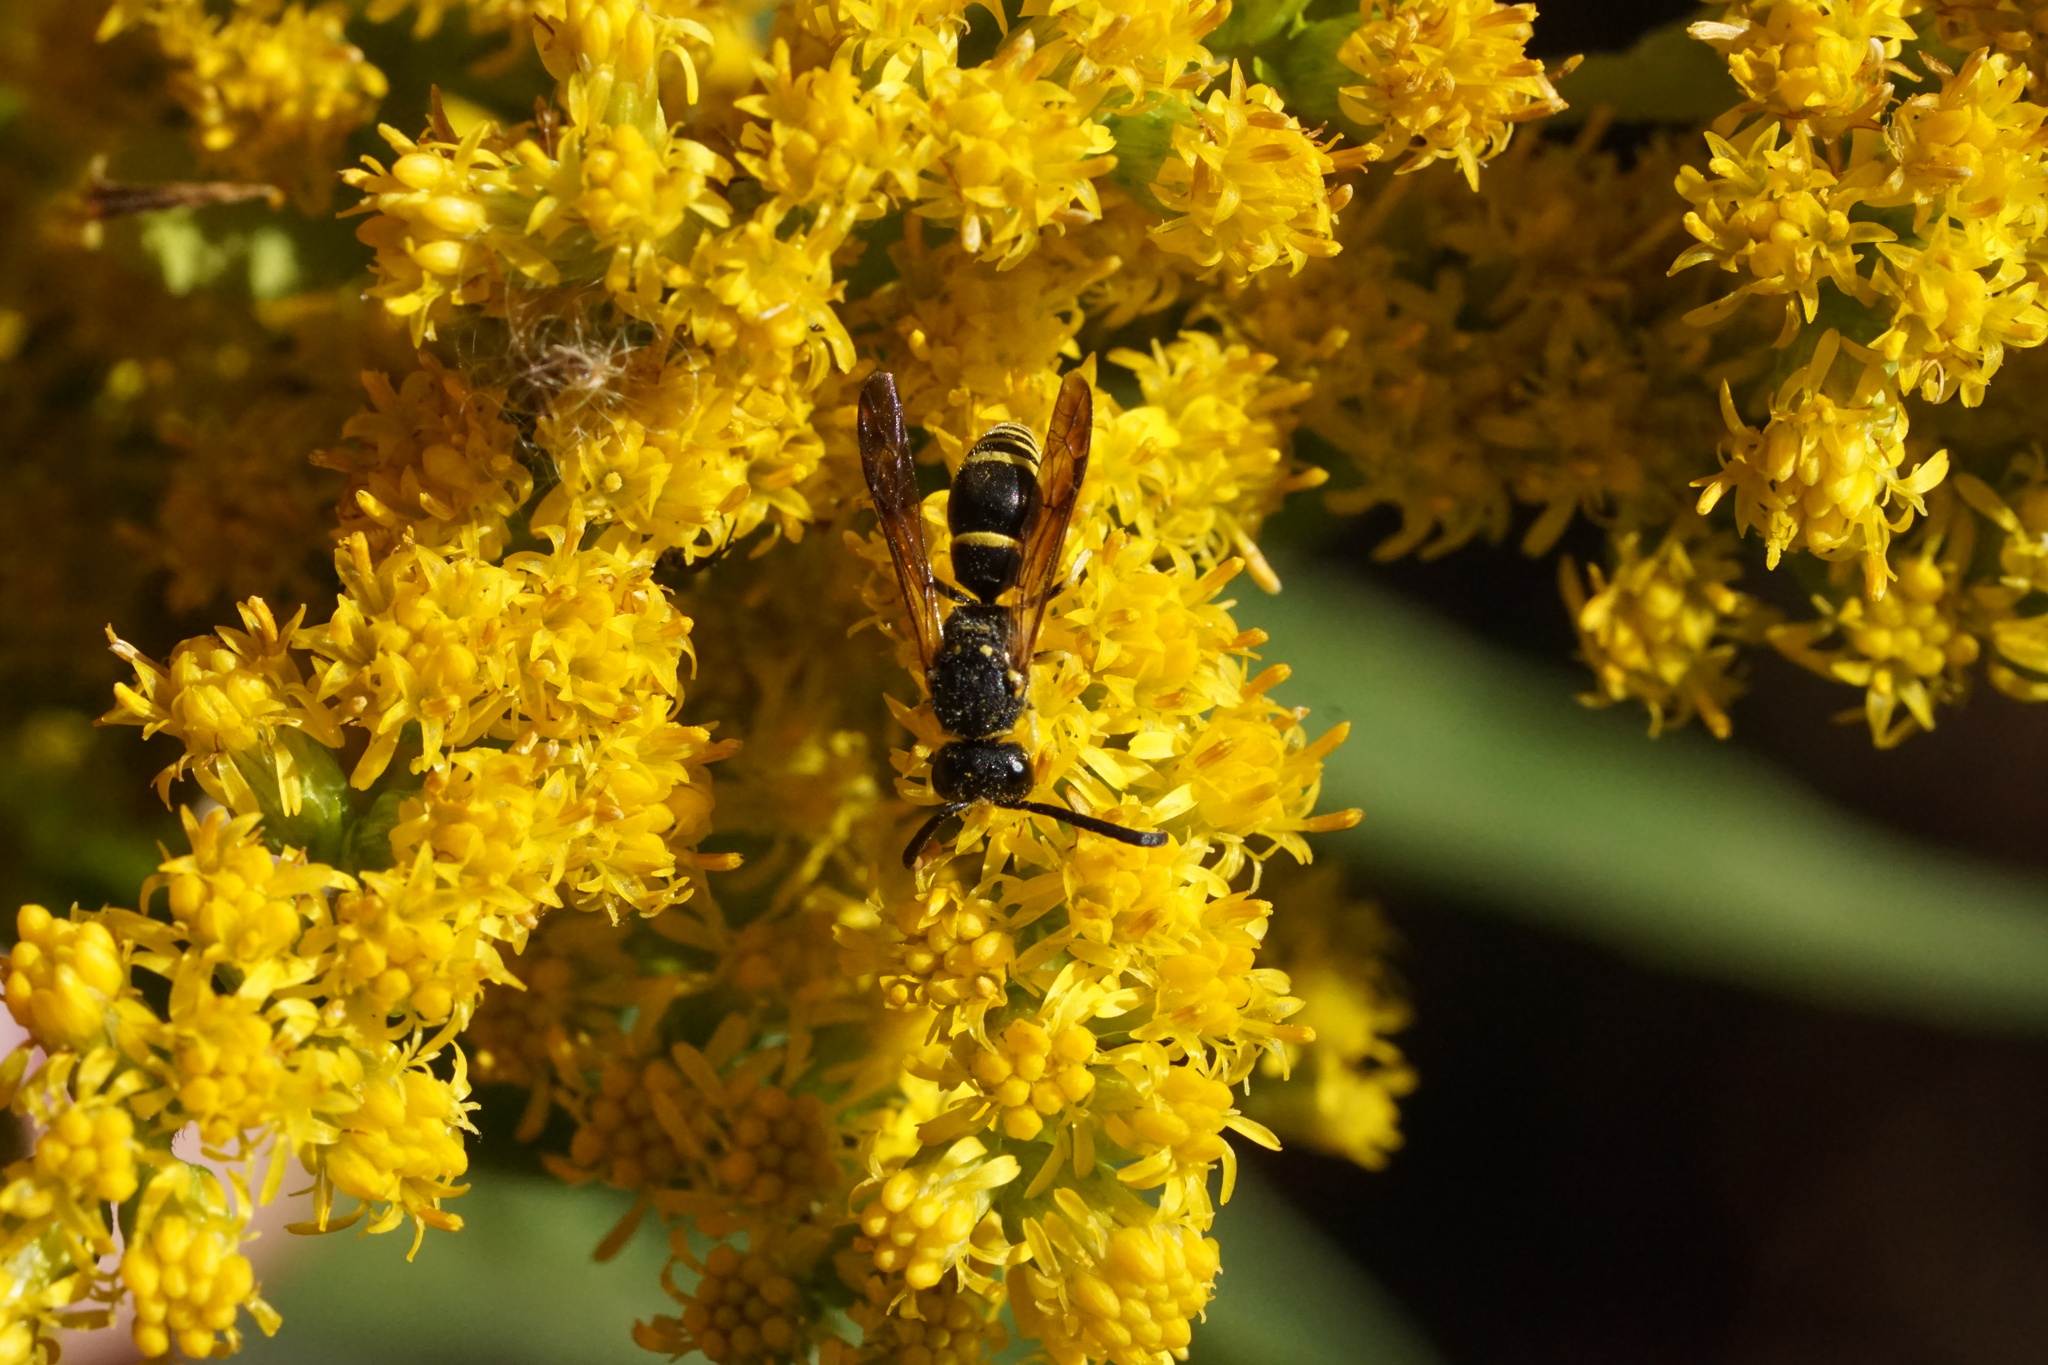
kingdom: Animalia
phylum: Arthropoda
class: Insecta
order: Hymenoptera
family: Vespidae
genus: Ancistrocerus
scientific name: Ancistrocerus adiabatus
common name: Bramble mason wasp
